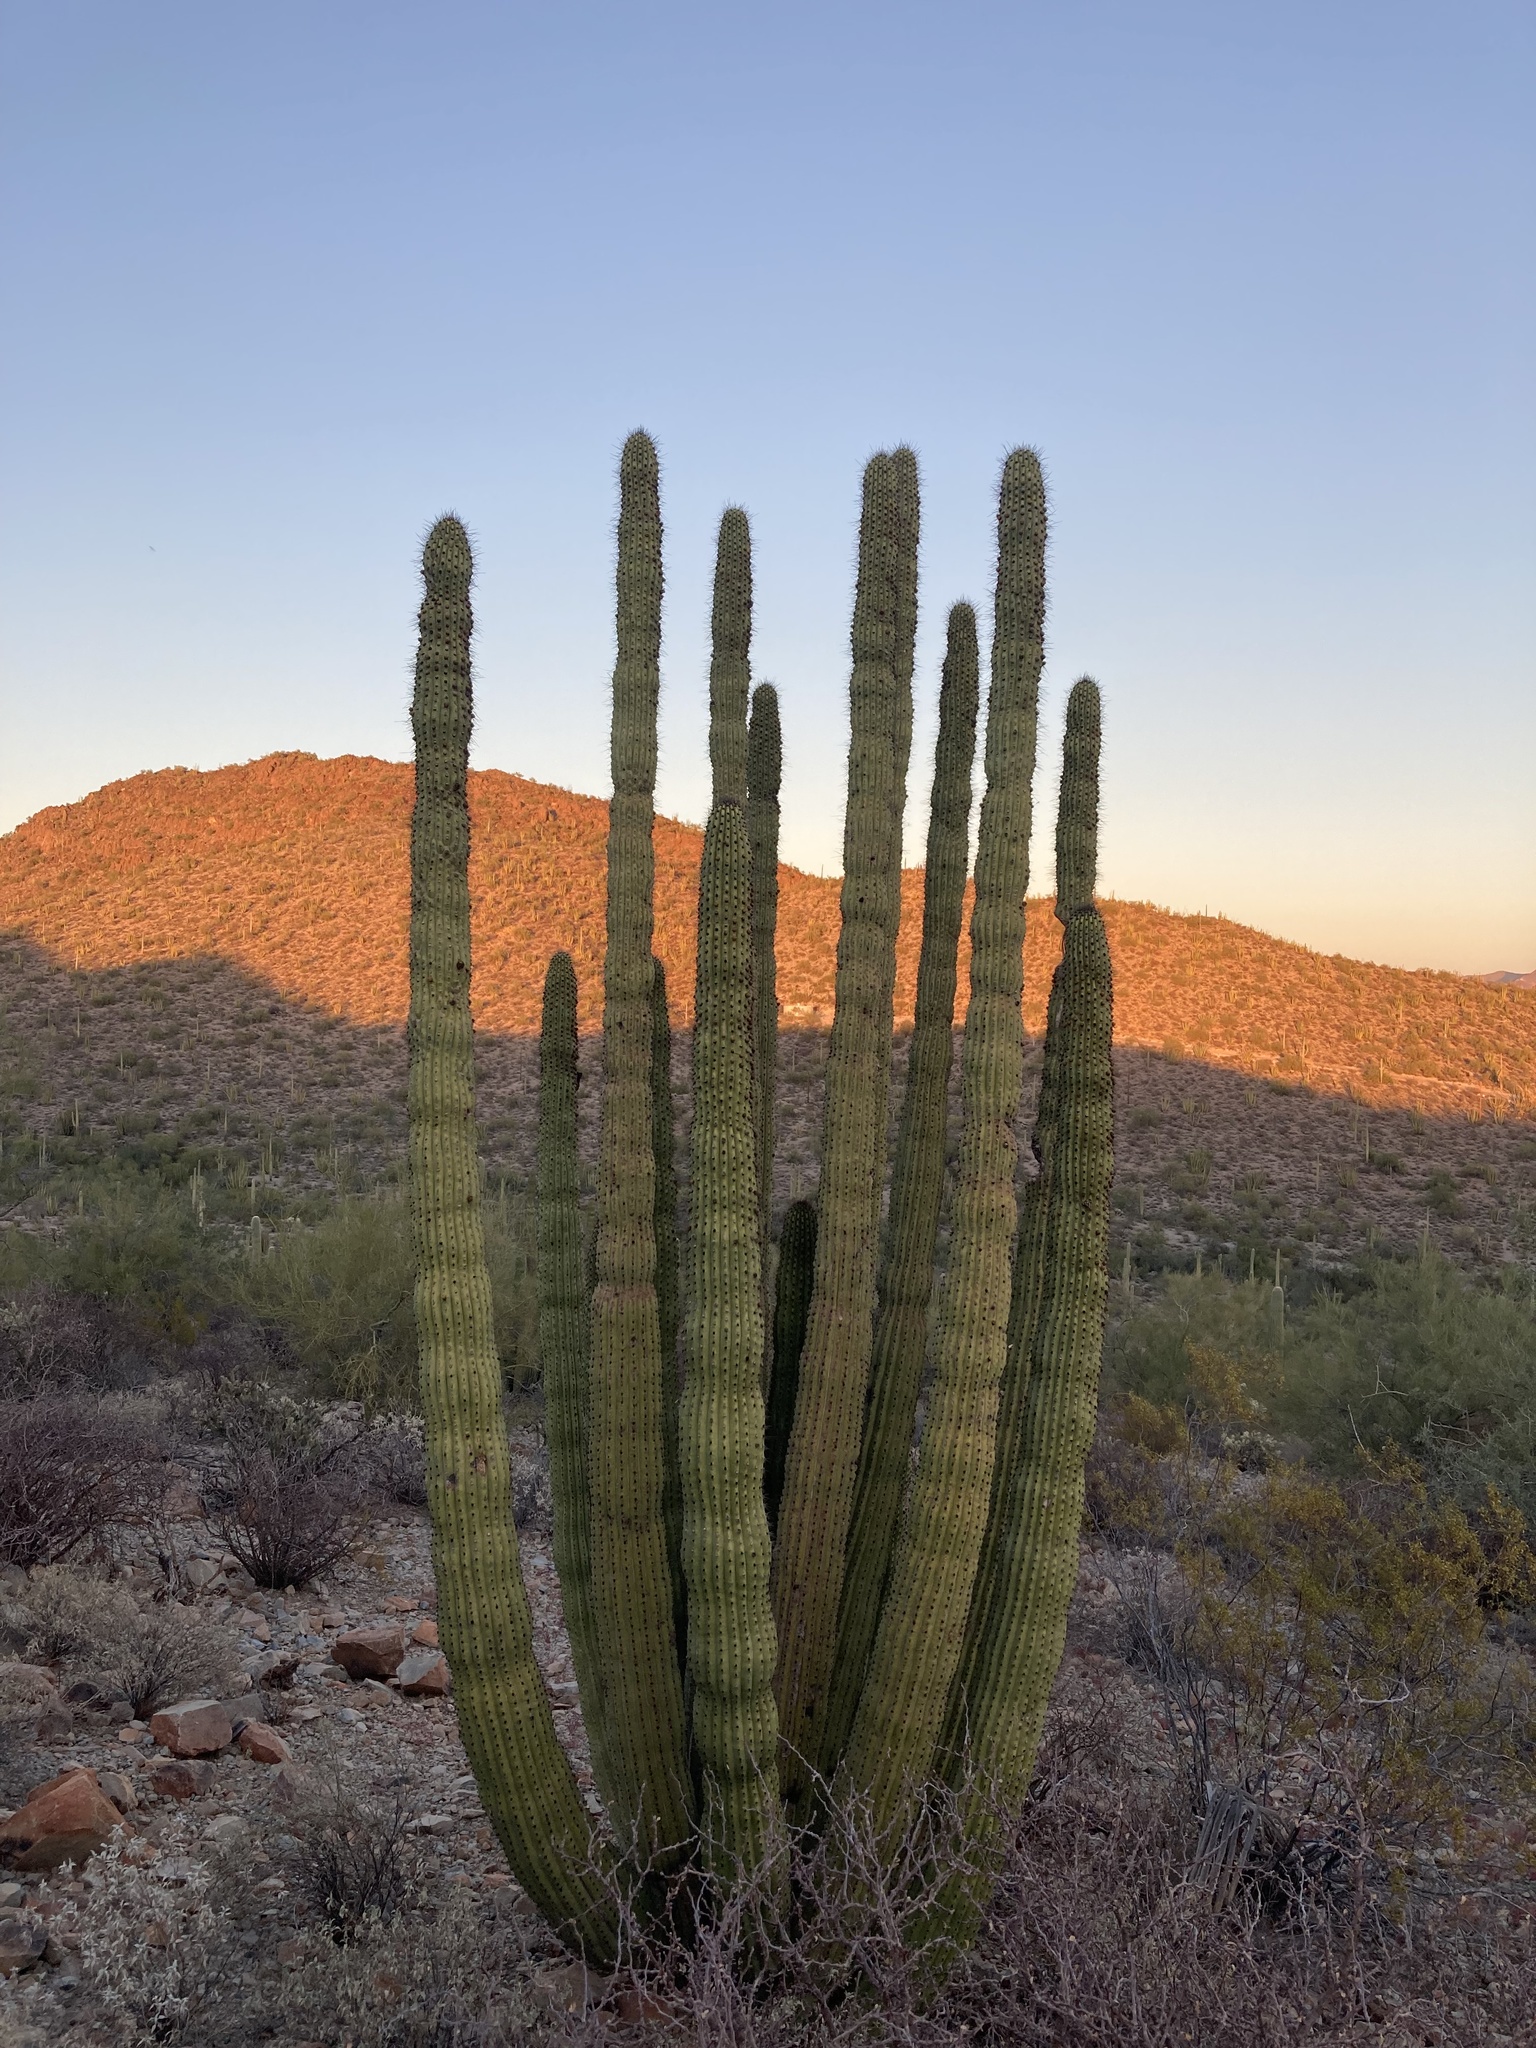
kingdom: Plantae
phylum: Tracheophyta
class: Magnoliopsida
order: Caryophyllales
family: Cactaceae
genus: Stenocereus
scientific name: Stenocereus thurberi
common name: Organ pipe cactus
